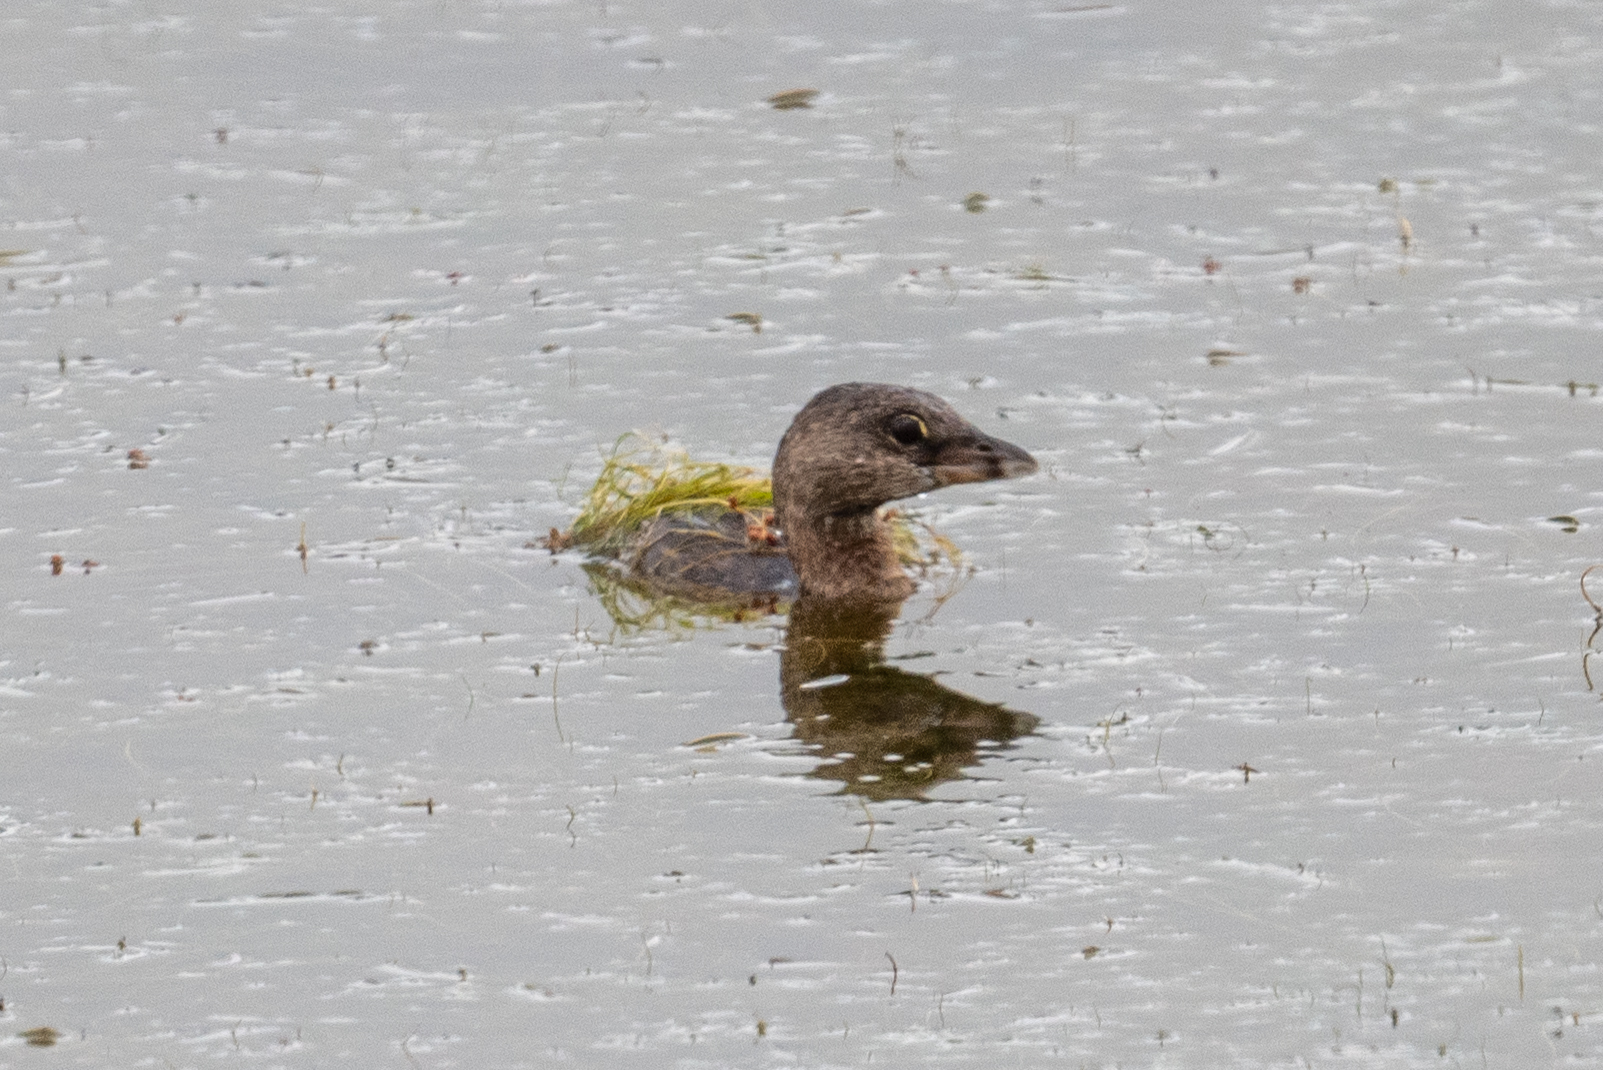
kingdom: Animalia
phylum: Chordata
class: Aves
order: Podicipediformes
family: Podicipedidae
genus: Podilymbus
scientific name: Podilymbus podiceps
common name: Pied-billed grebe
